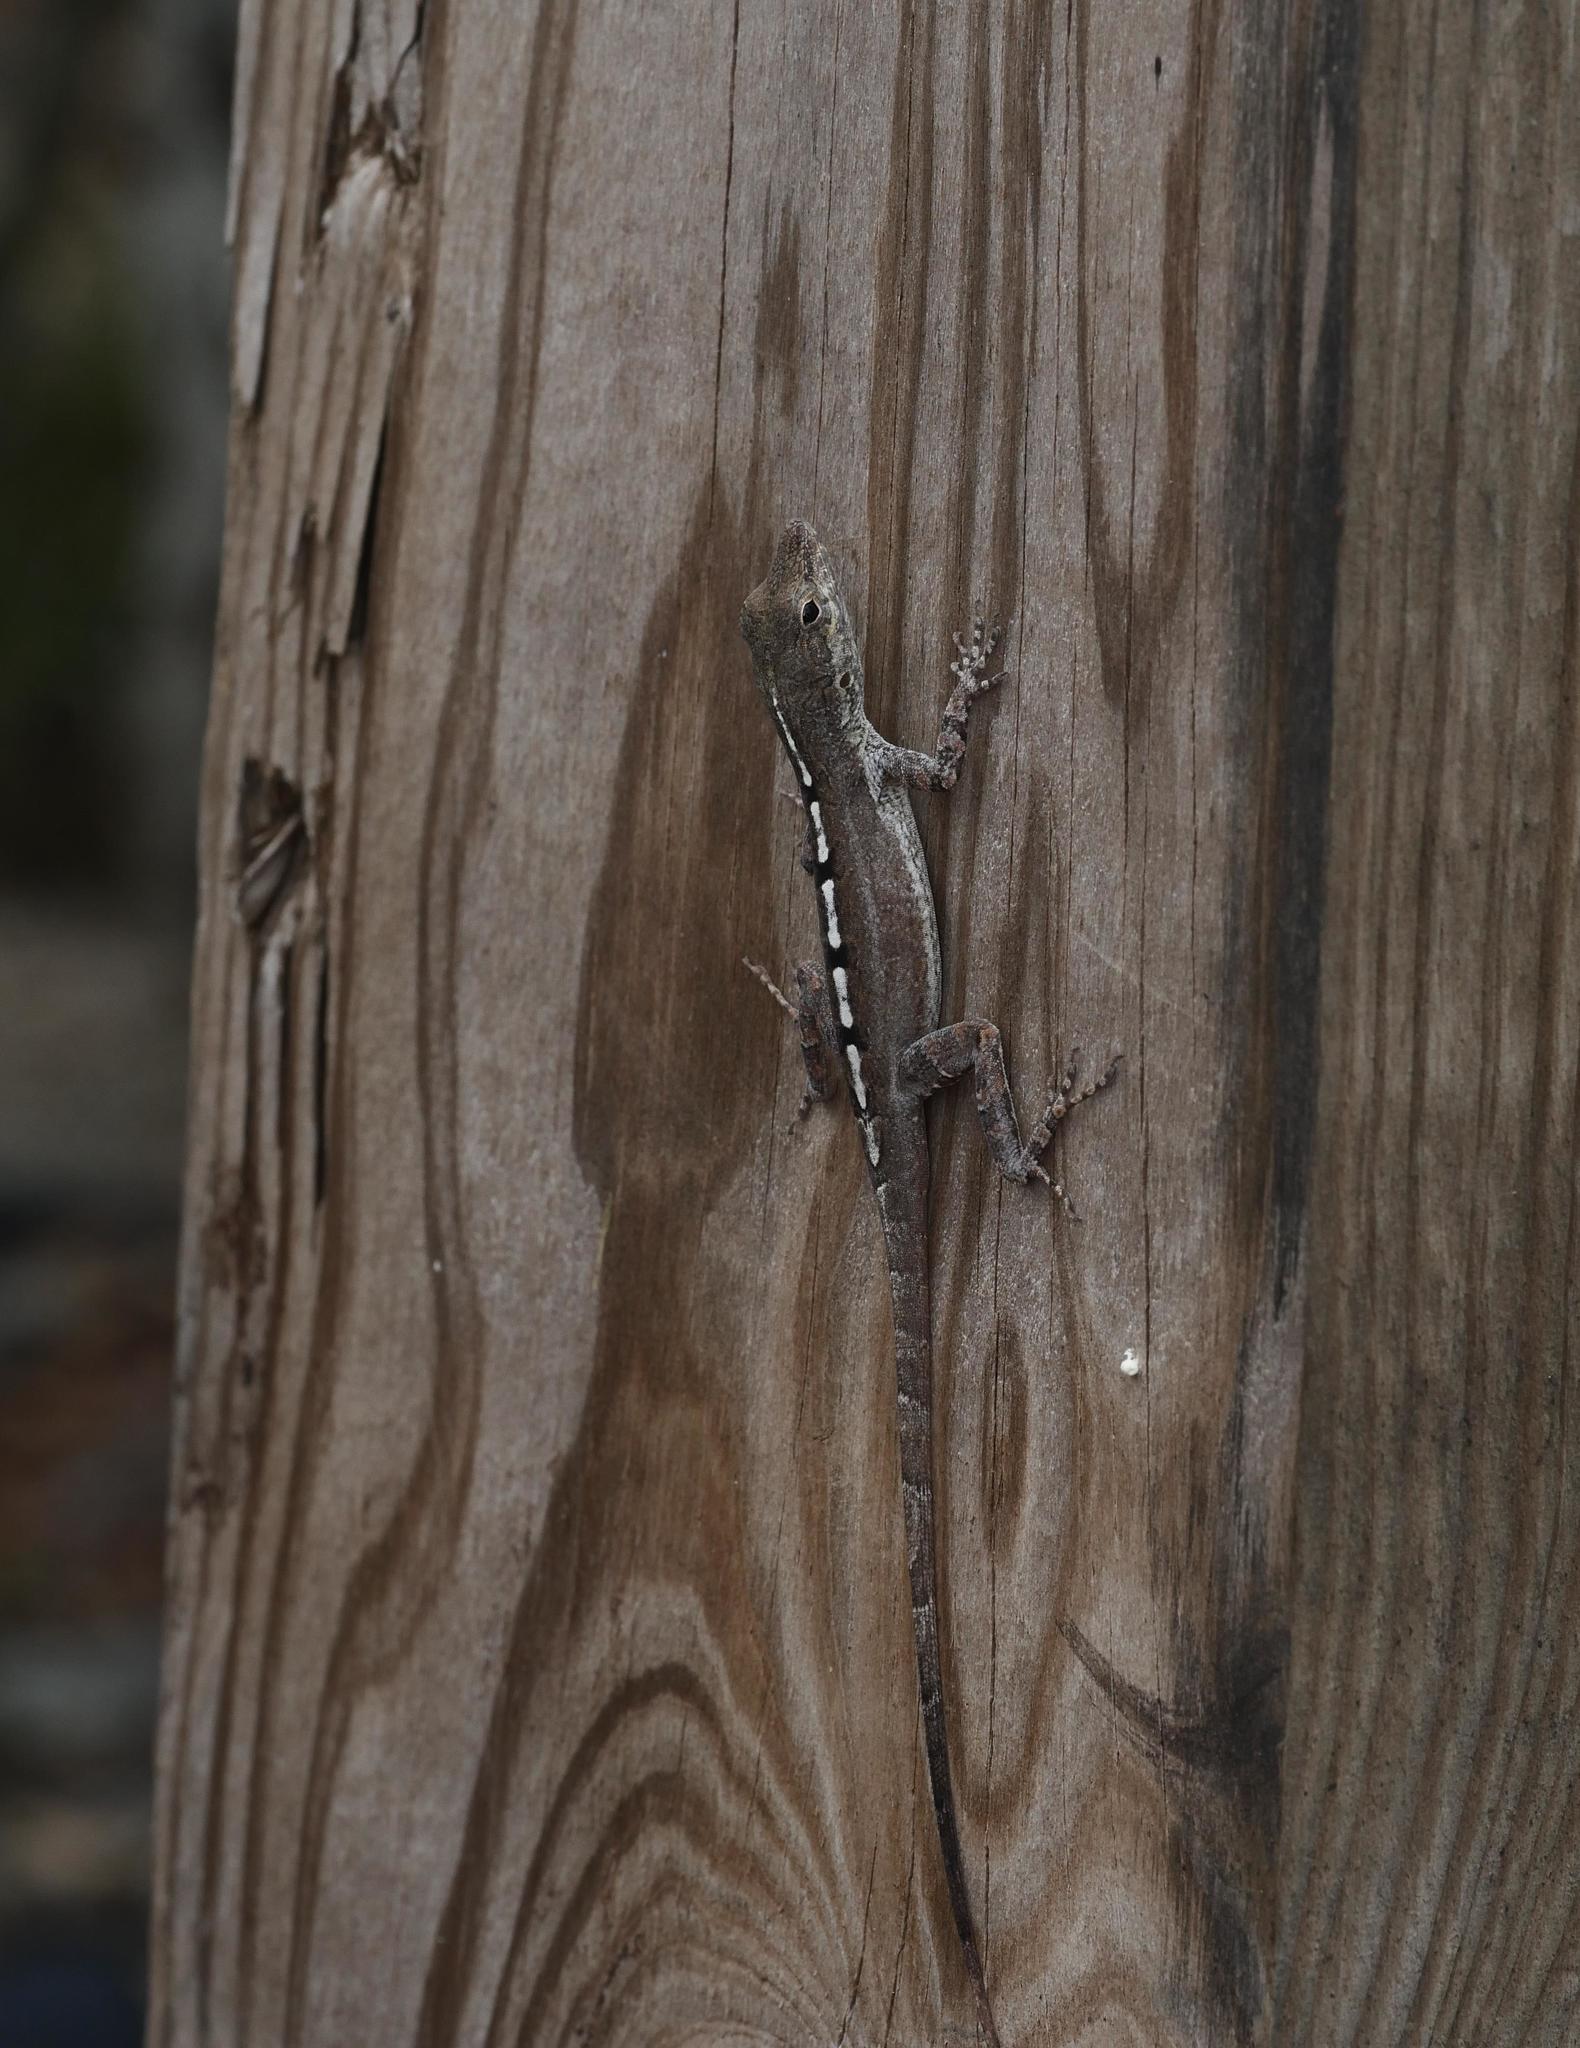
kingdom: Animalia
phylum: Chordata
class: Squamata
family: Dactyloidae
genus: Anolis
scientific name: Anolis scriptus
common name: Silver key anole
